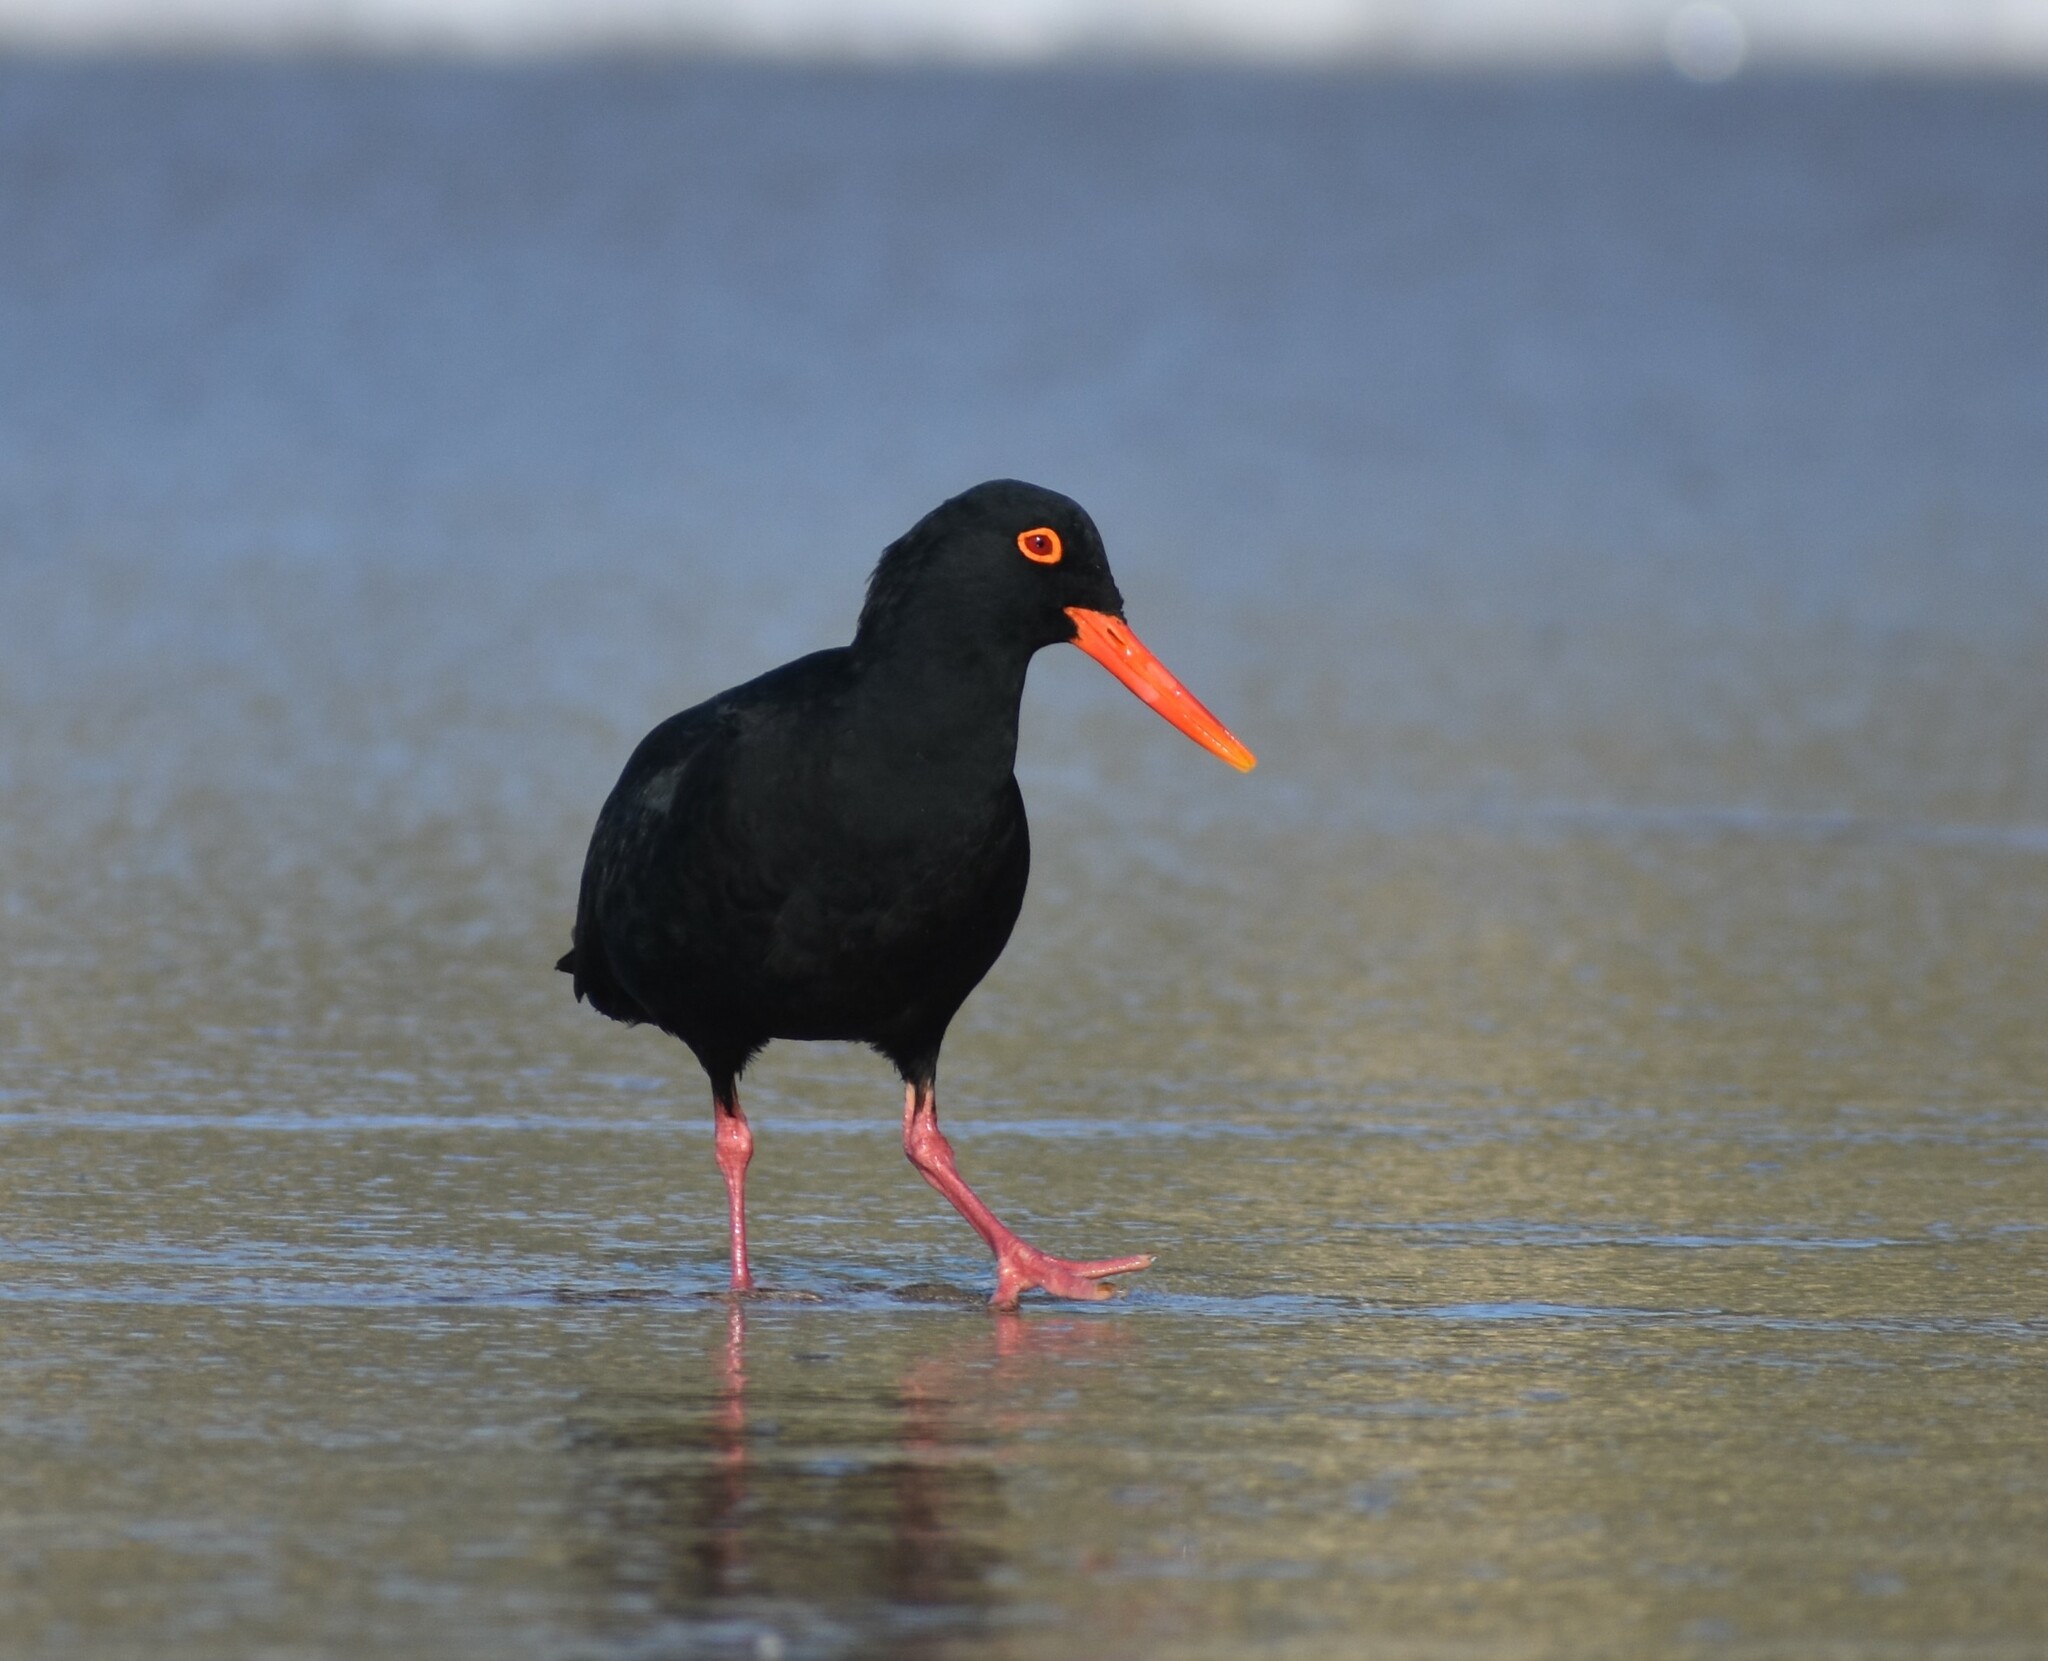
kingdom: Animalia
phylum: Chordata
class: Aves
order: Charadriiformes
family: Haematopodidae
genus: Haematopus
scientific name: Haematopus moquini
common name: African oystercatcher
